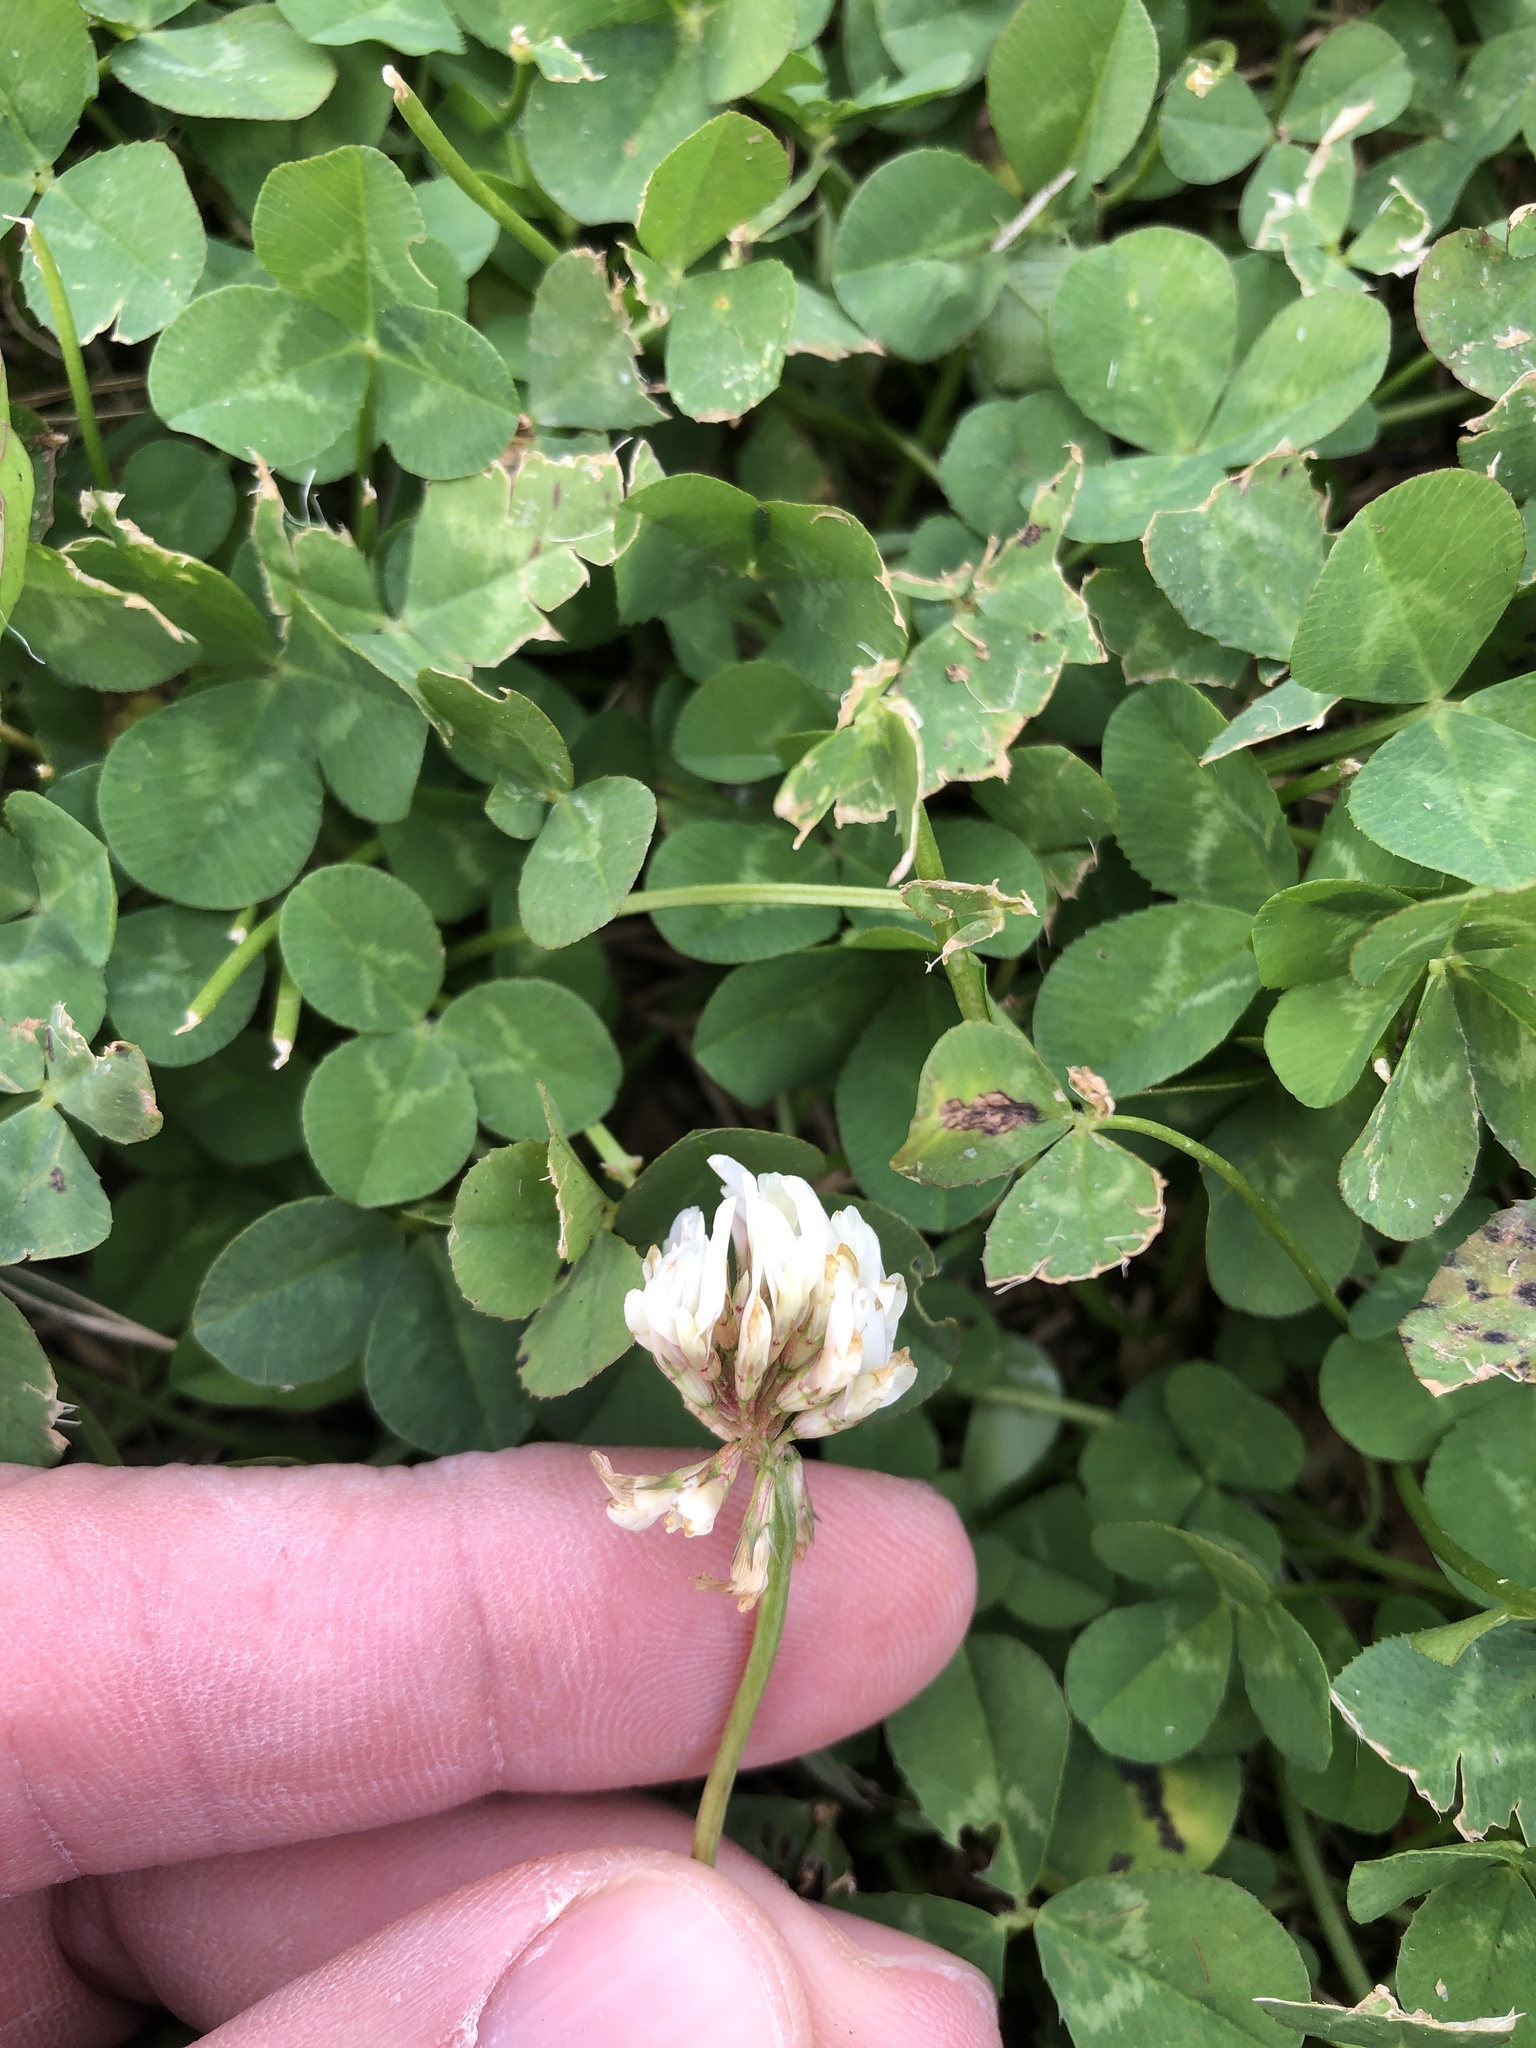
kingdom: Plantae
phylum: Tracheophyta
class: Magnoliopsida
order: Fabales
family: Fabaceae
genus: Trifolium
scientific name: Trifolium repens
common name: White clover
